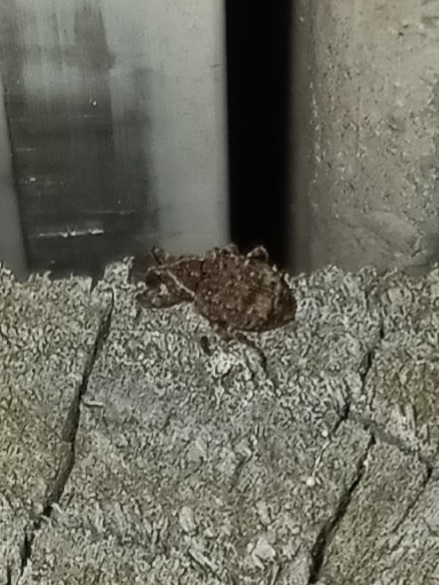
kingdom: Animalia
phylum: Arthropoda
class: Insecta
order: Coleoptera
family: Curculionidae
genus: Conotrachelus
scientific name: Conotrachelus seniculus
